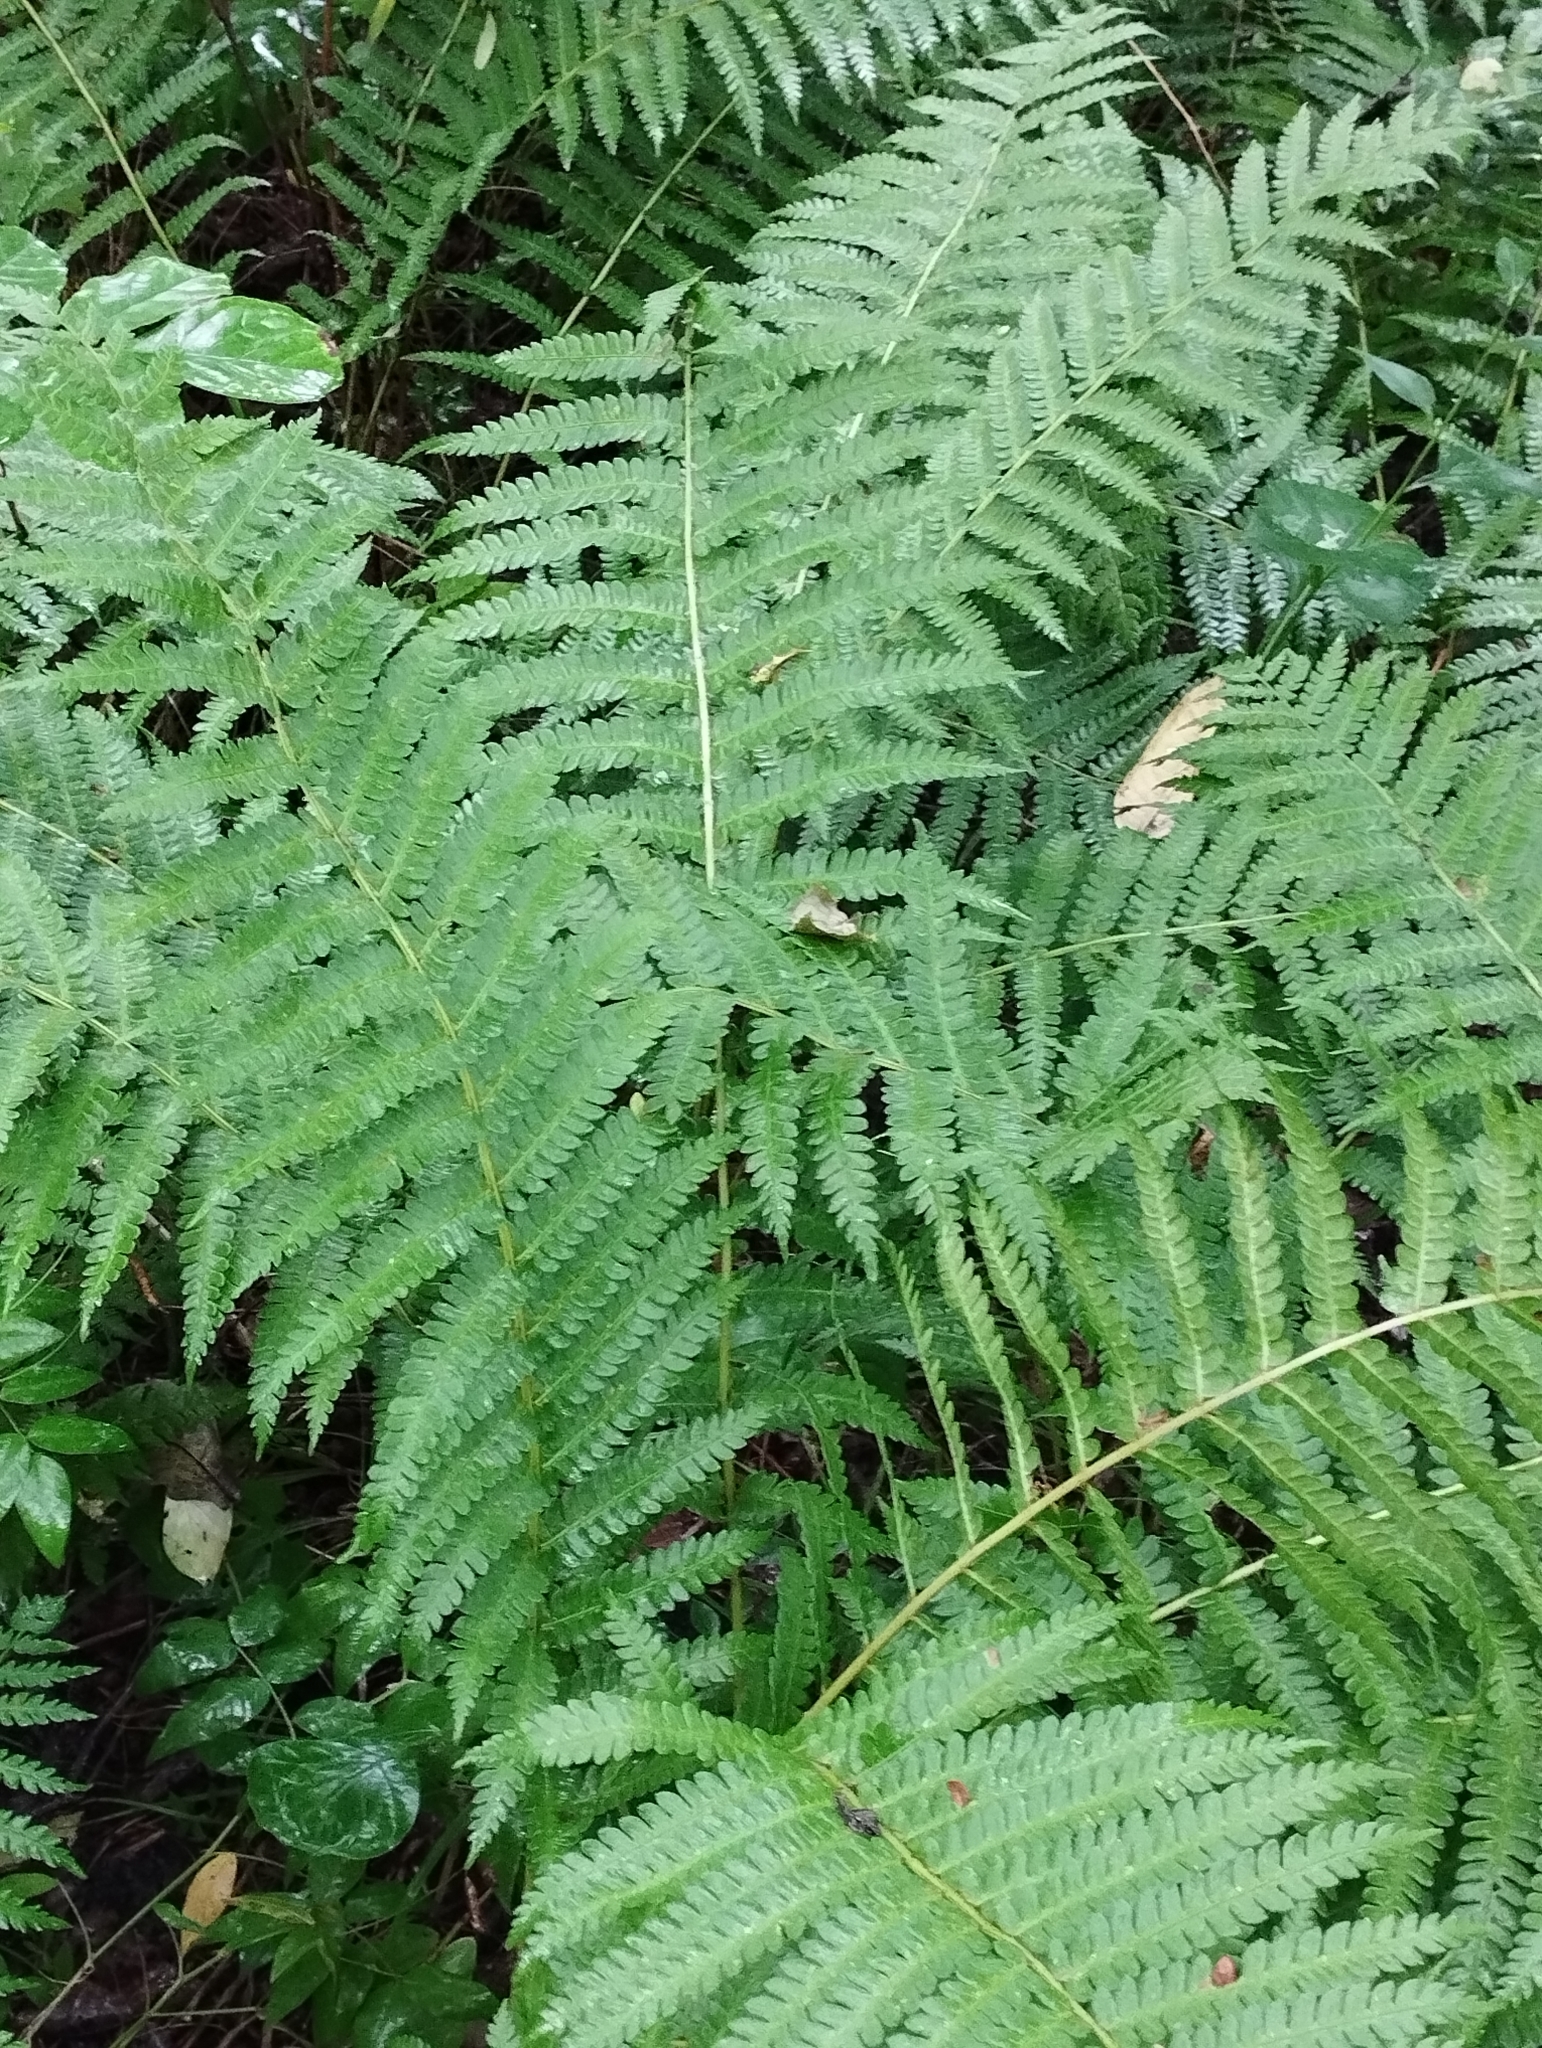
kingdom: Plantae
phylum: Tracheophyta
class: Polypodiopsida
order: Osmundales
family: Osmundaceae
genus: Osmundastrum
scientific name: Osmundastrum cinnamomeum
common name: Cinnamon fern
